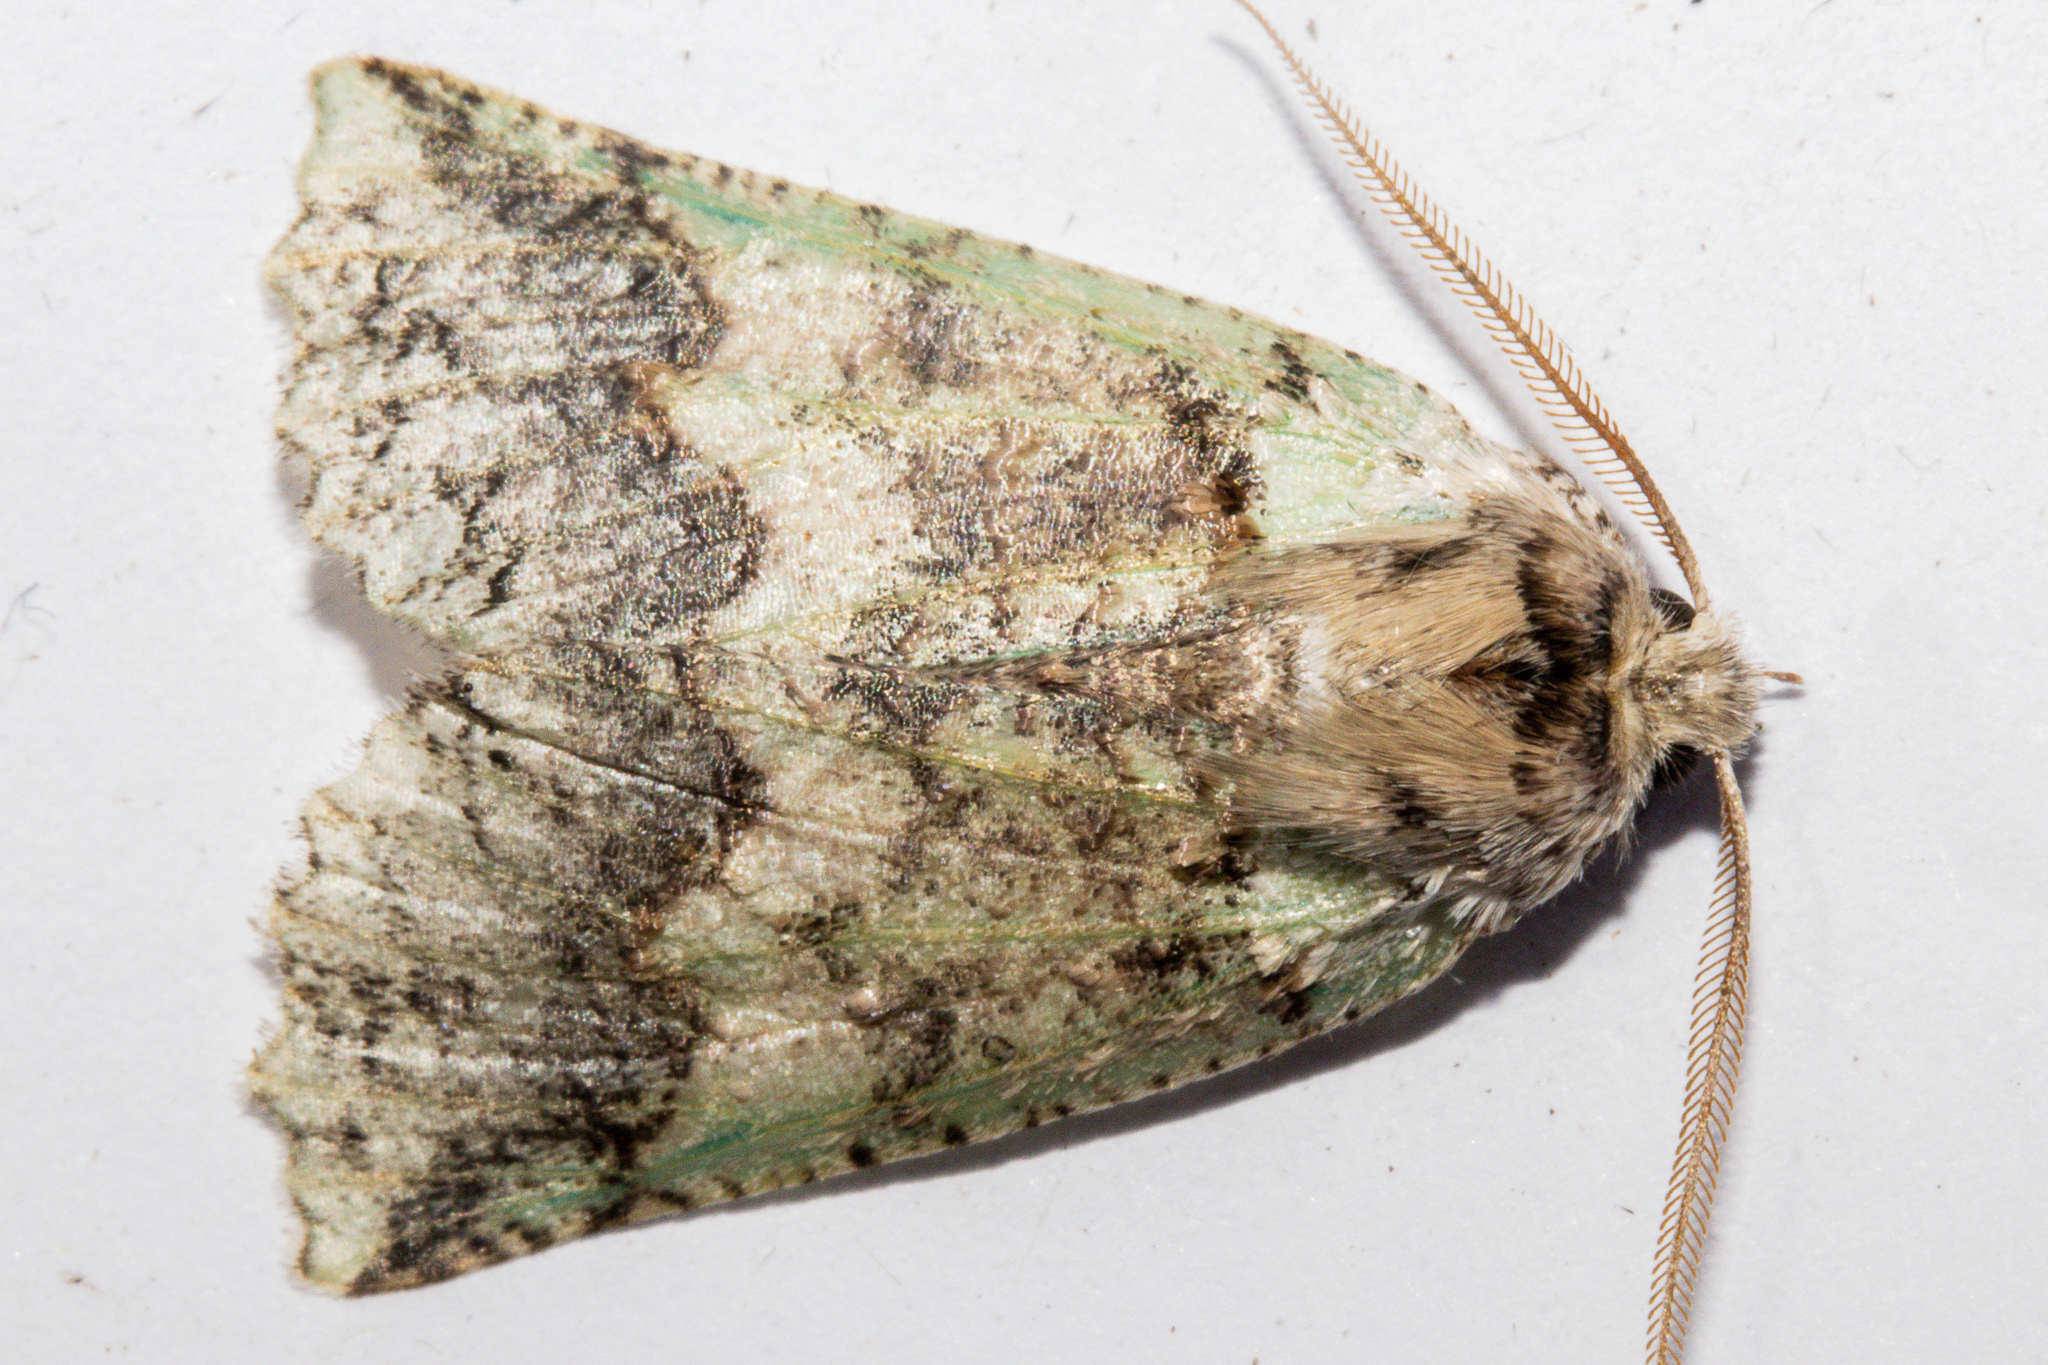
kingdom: Animalia
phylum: Arthropoda
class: Insecta
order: Lepidoptera
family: Geometridae
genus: Declana
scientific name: Declana floccosa
